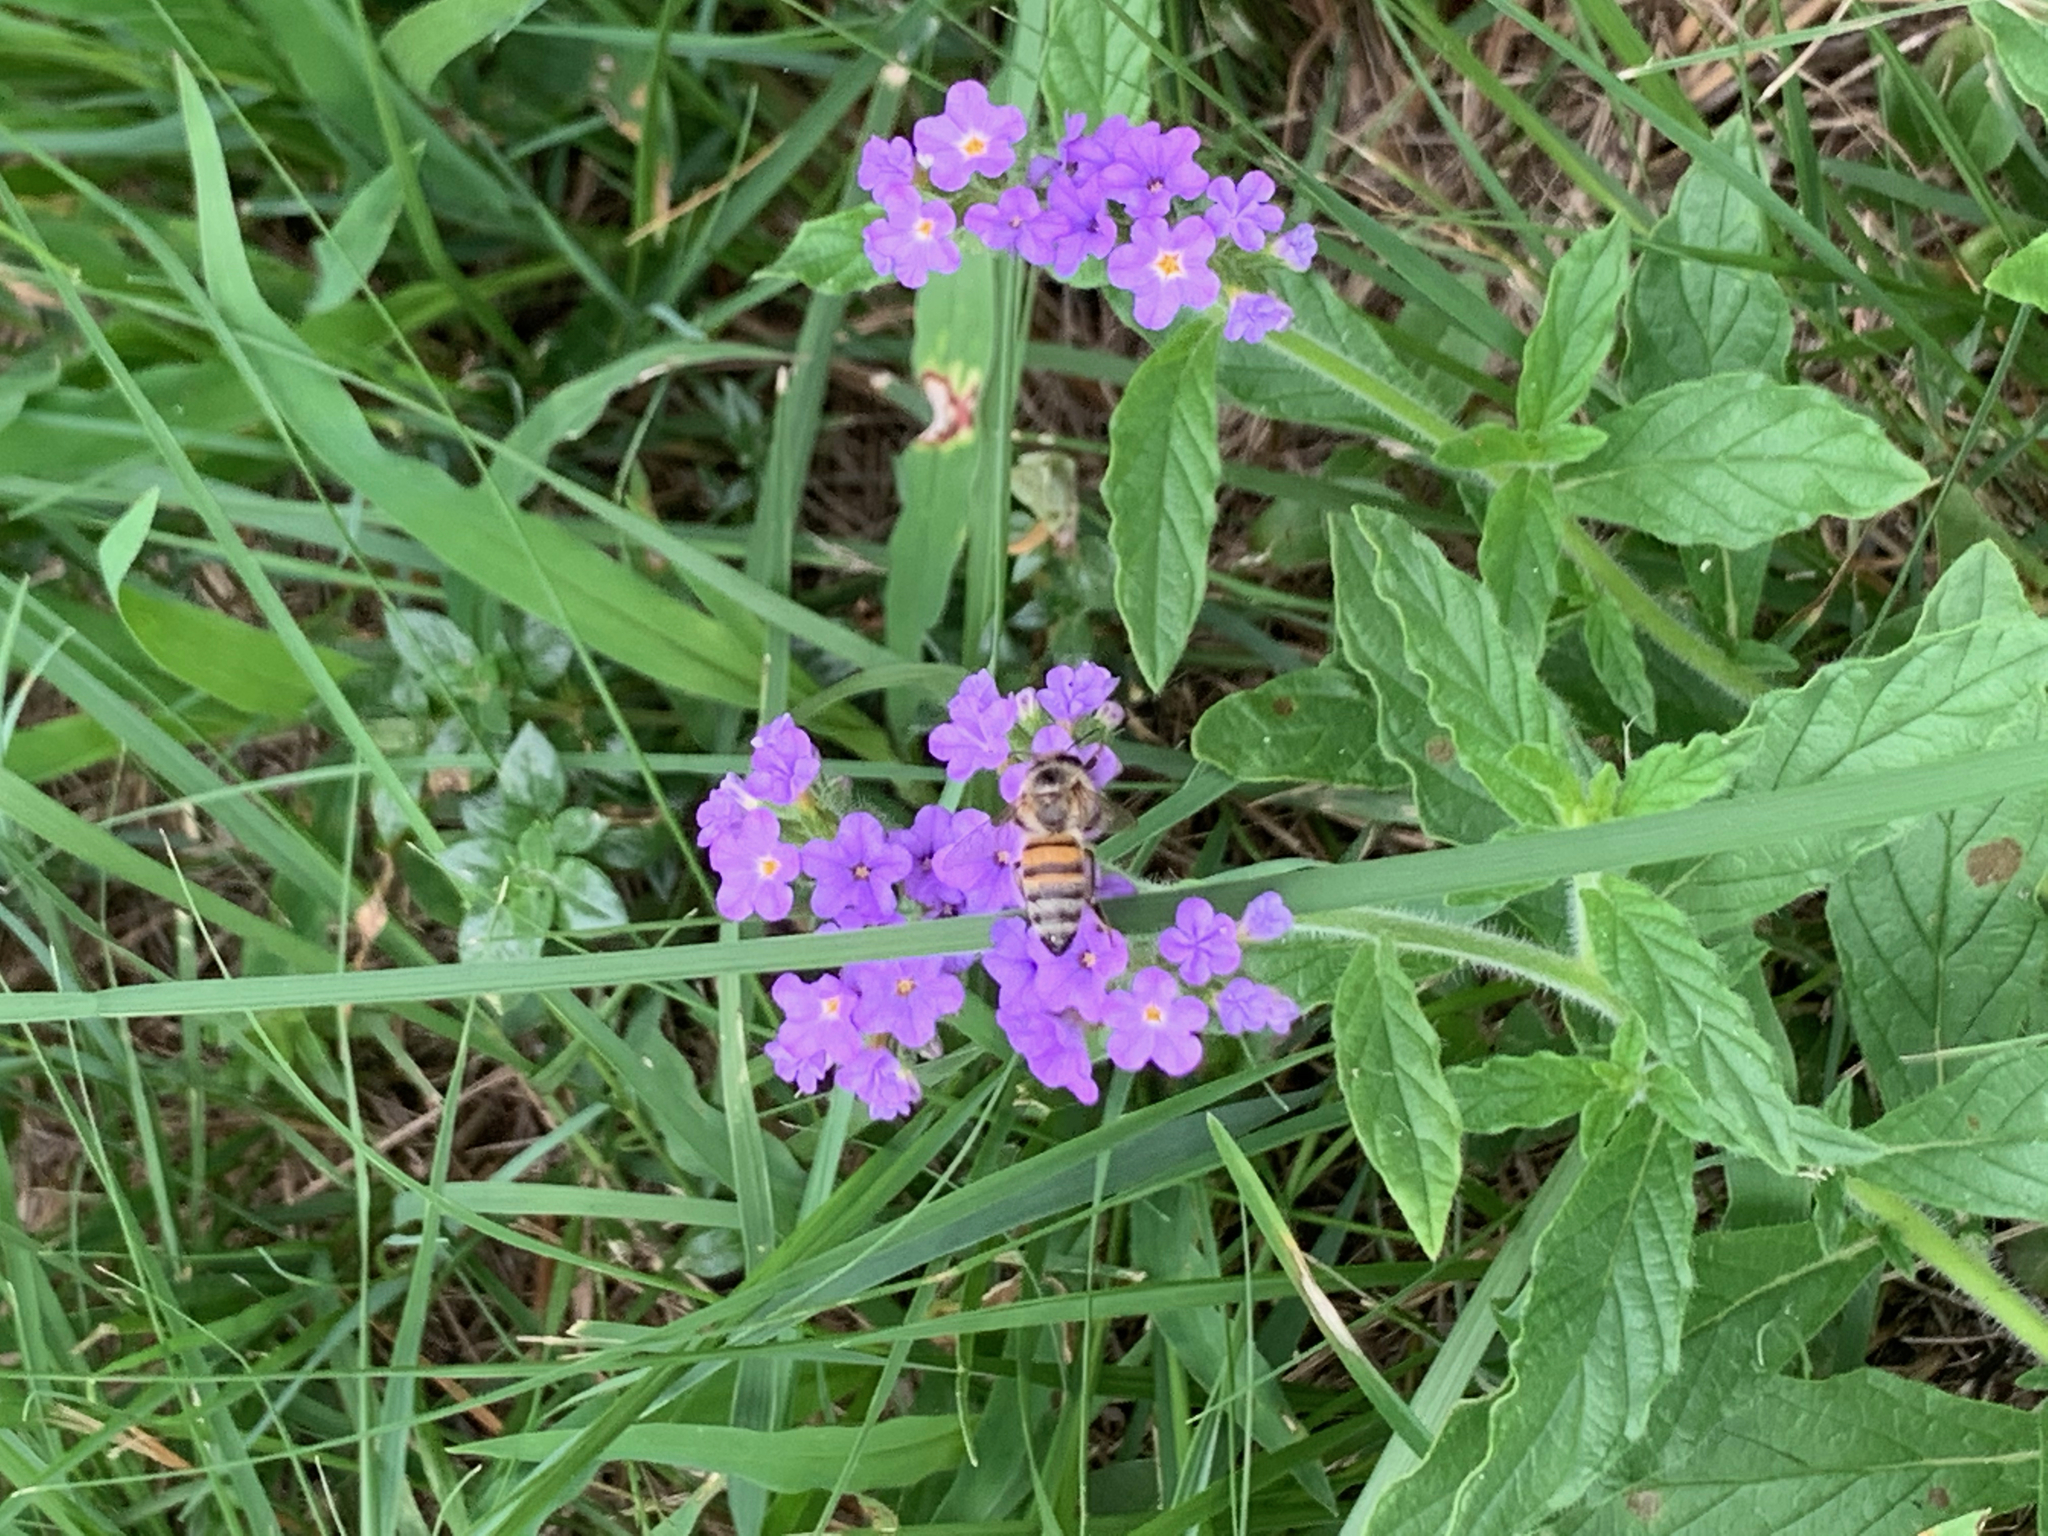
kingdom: Animalia
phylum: Arthropoda
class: Insecta
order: Hymenoptera
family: Apidae
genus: Apis
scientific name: Apis mellifera
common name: Honey bee
